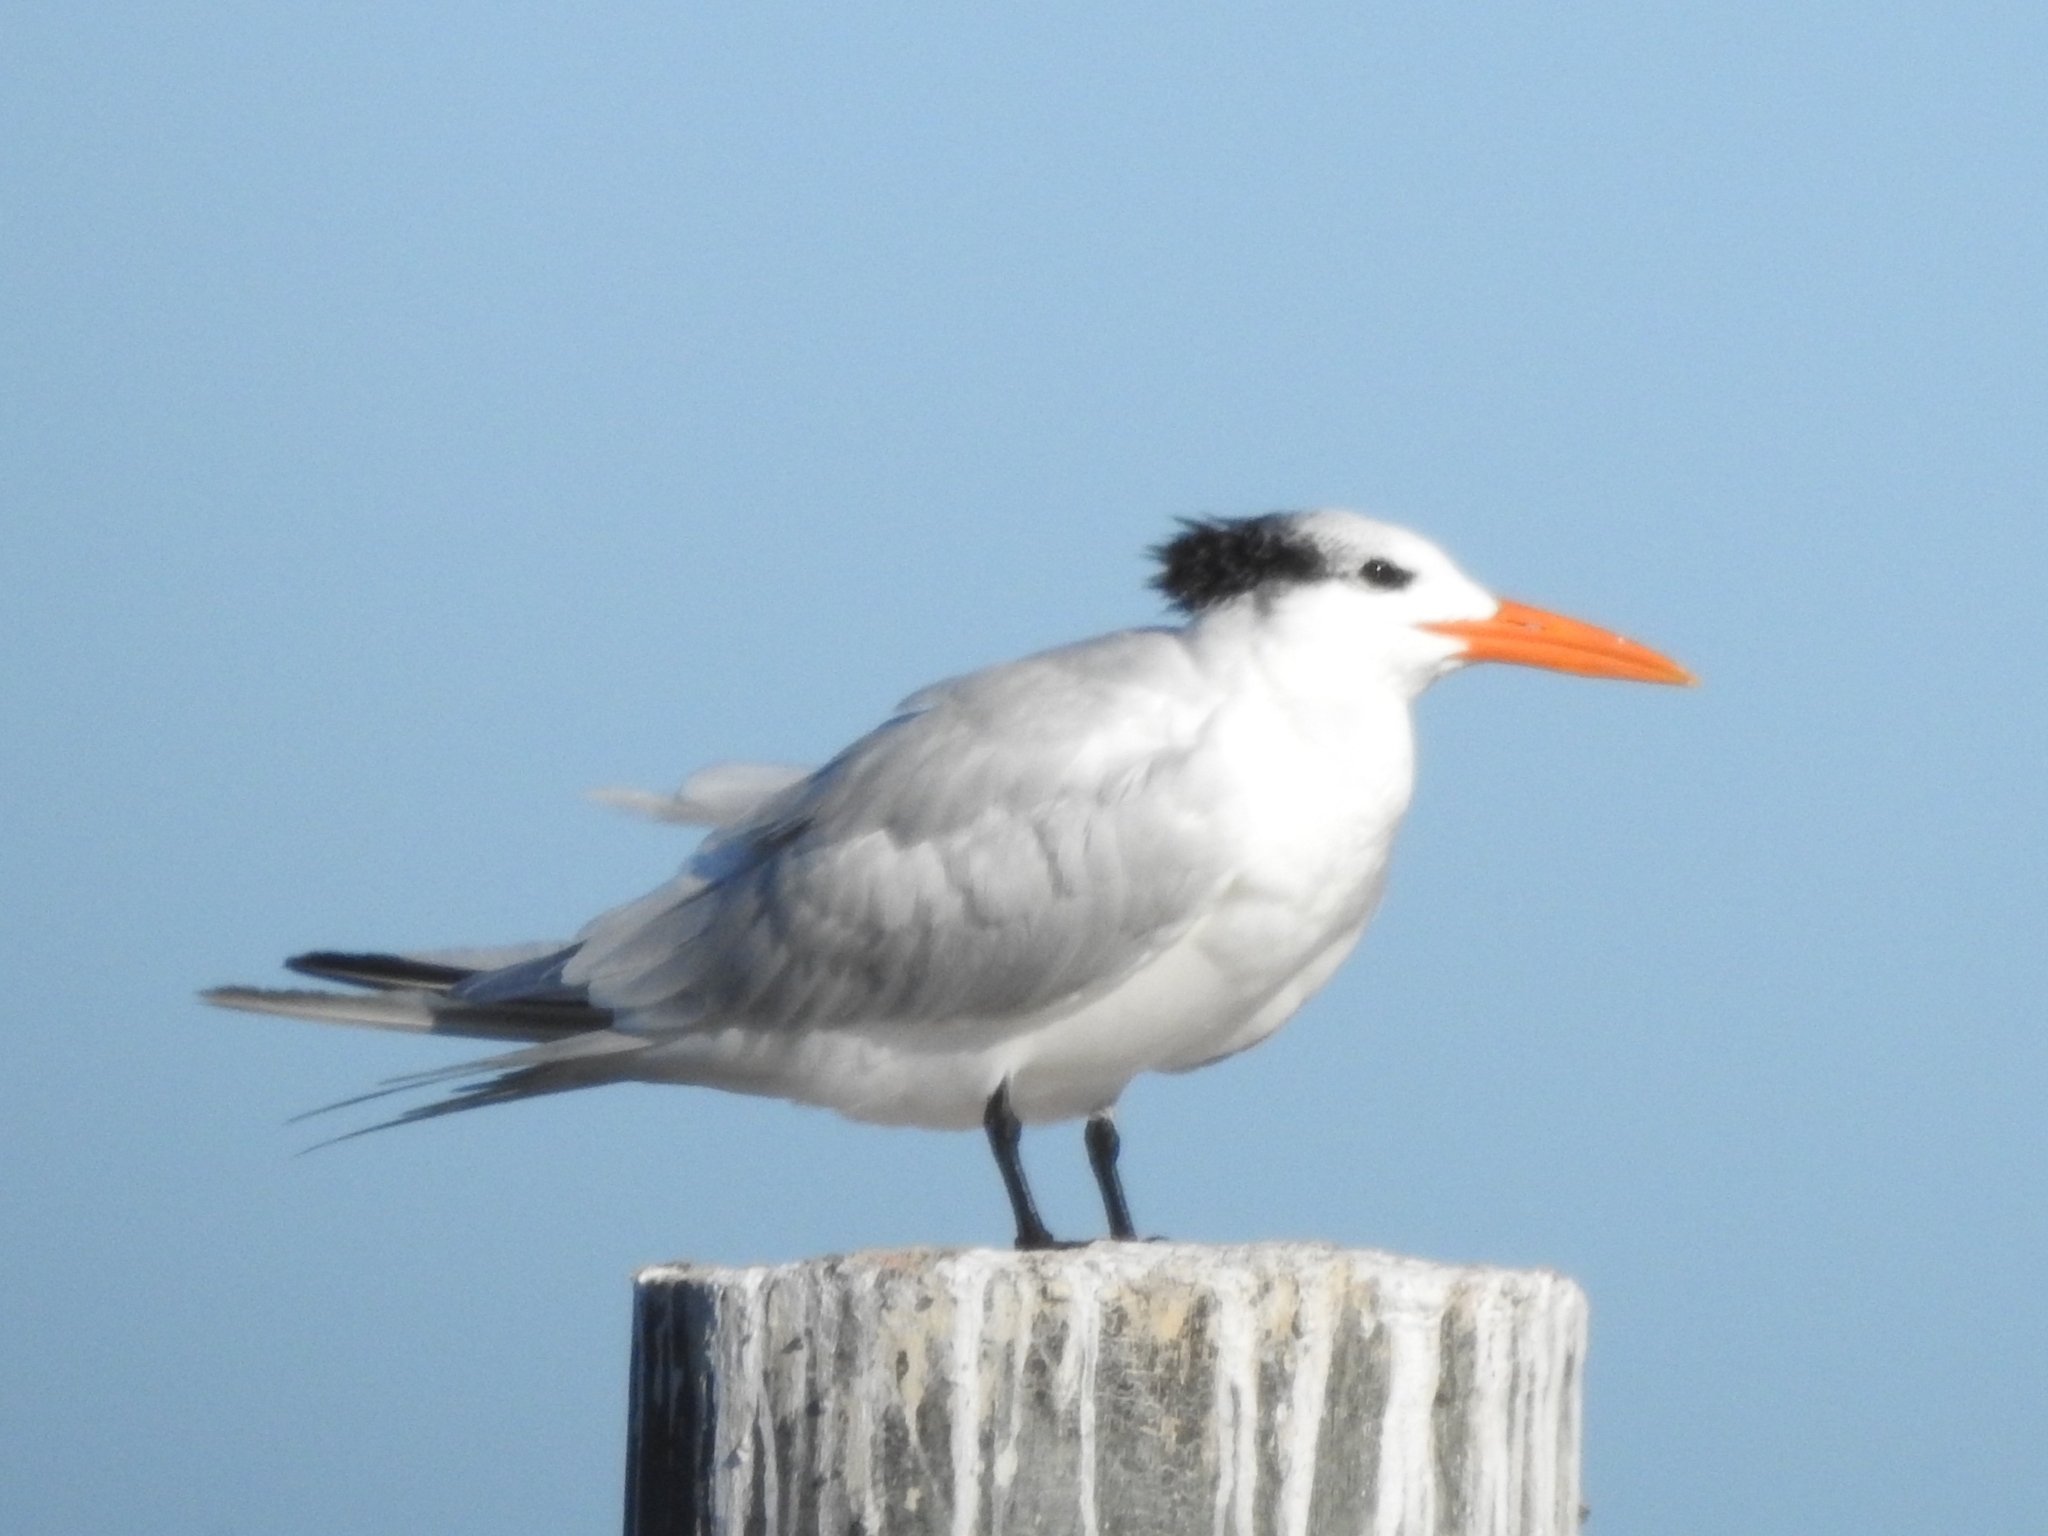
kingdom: Animalia
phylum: Chordata
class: Aves
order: Charadriiformes
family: Laridae
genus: Thalasseus
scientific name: Thalasseus maximus
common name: Royal tern
